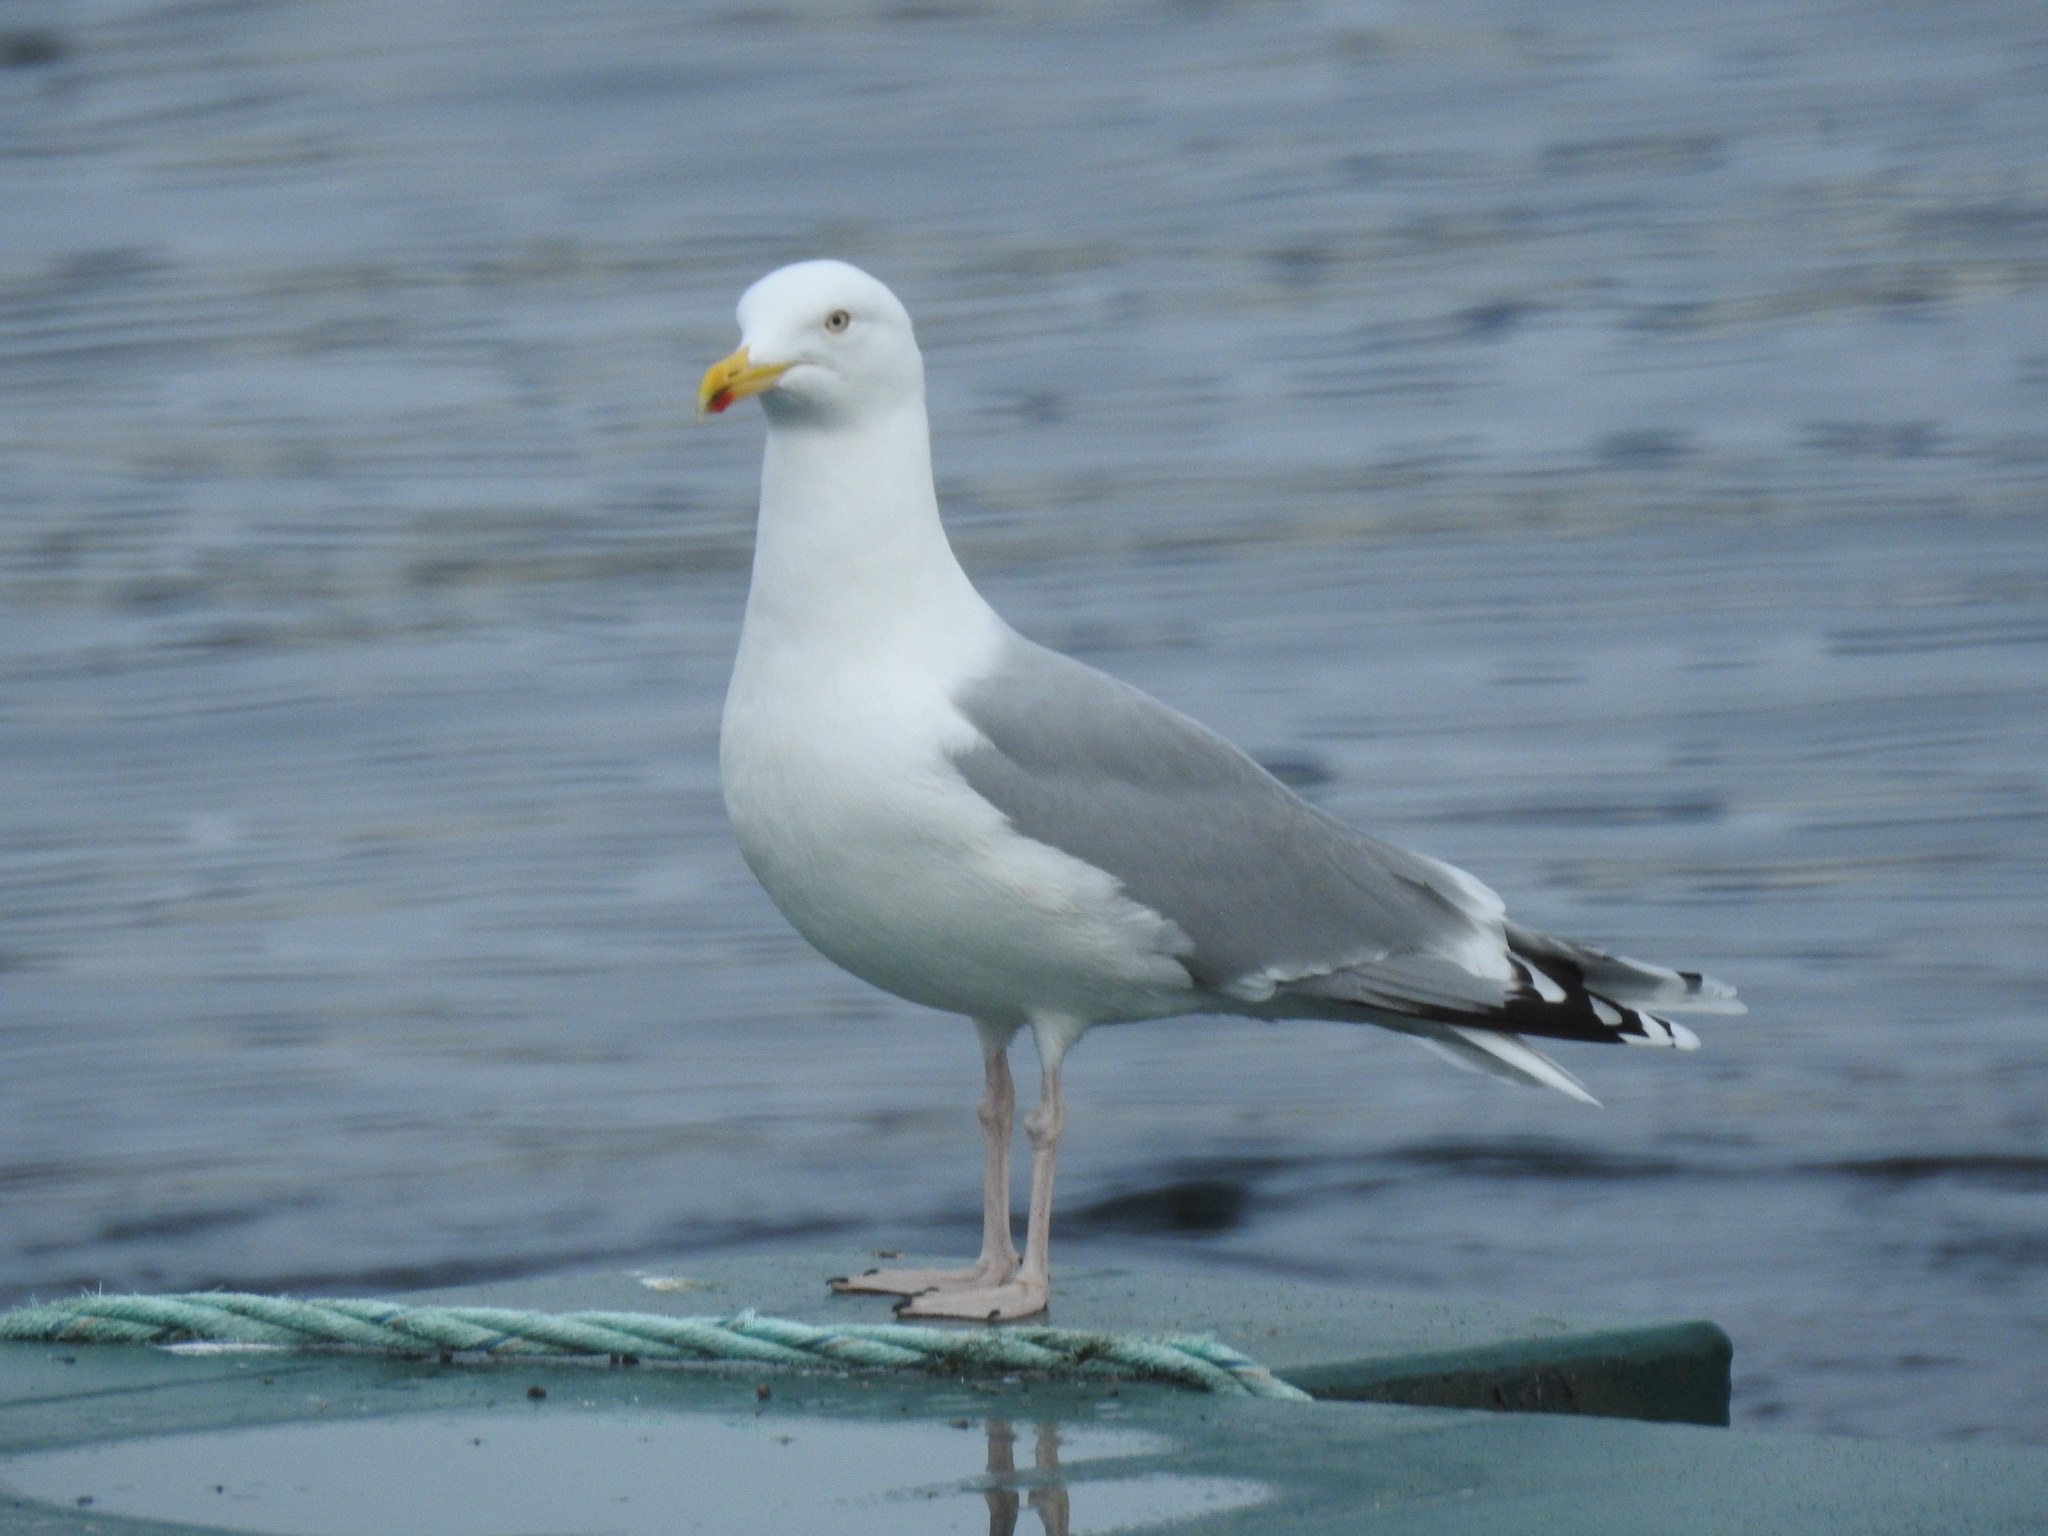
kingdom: Animalia
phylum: Chordata
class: Aves
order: Charadriiformes
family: Laridae
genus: Larus
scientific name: Larus argentatus
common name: Herring gull
